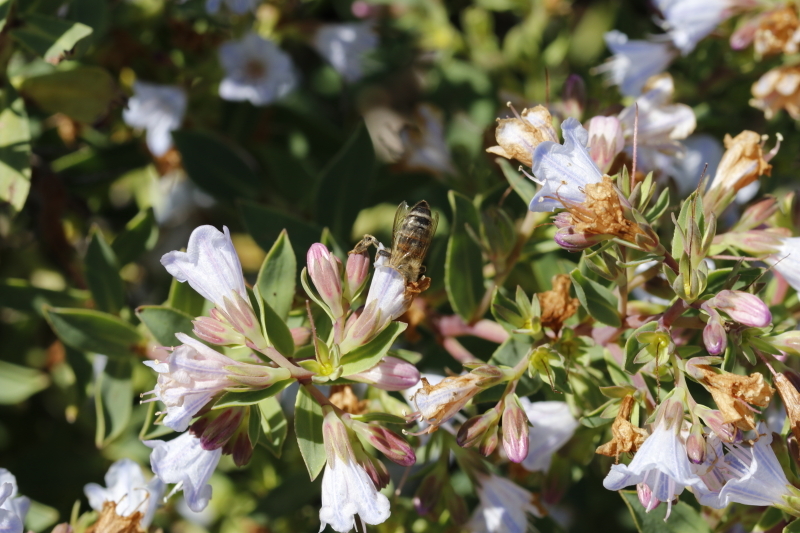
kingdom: Animalia
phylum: Arthropoda
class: Insecta
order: Hymenoptera
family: Apidae
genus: Apis
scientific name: Apis mellifera
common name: Honey bee
